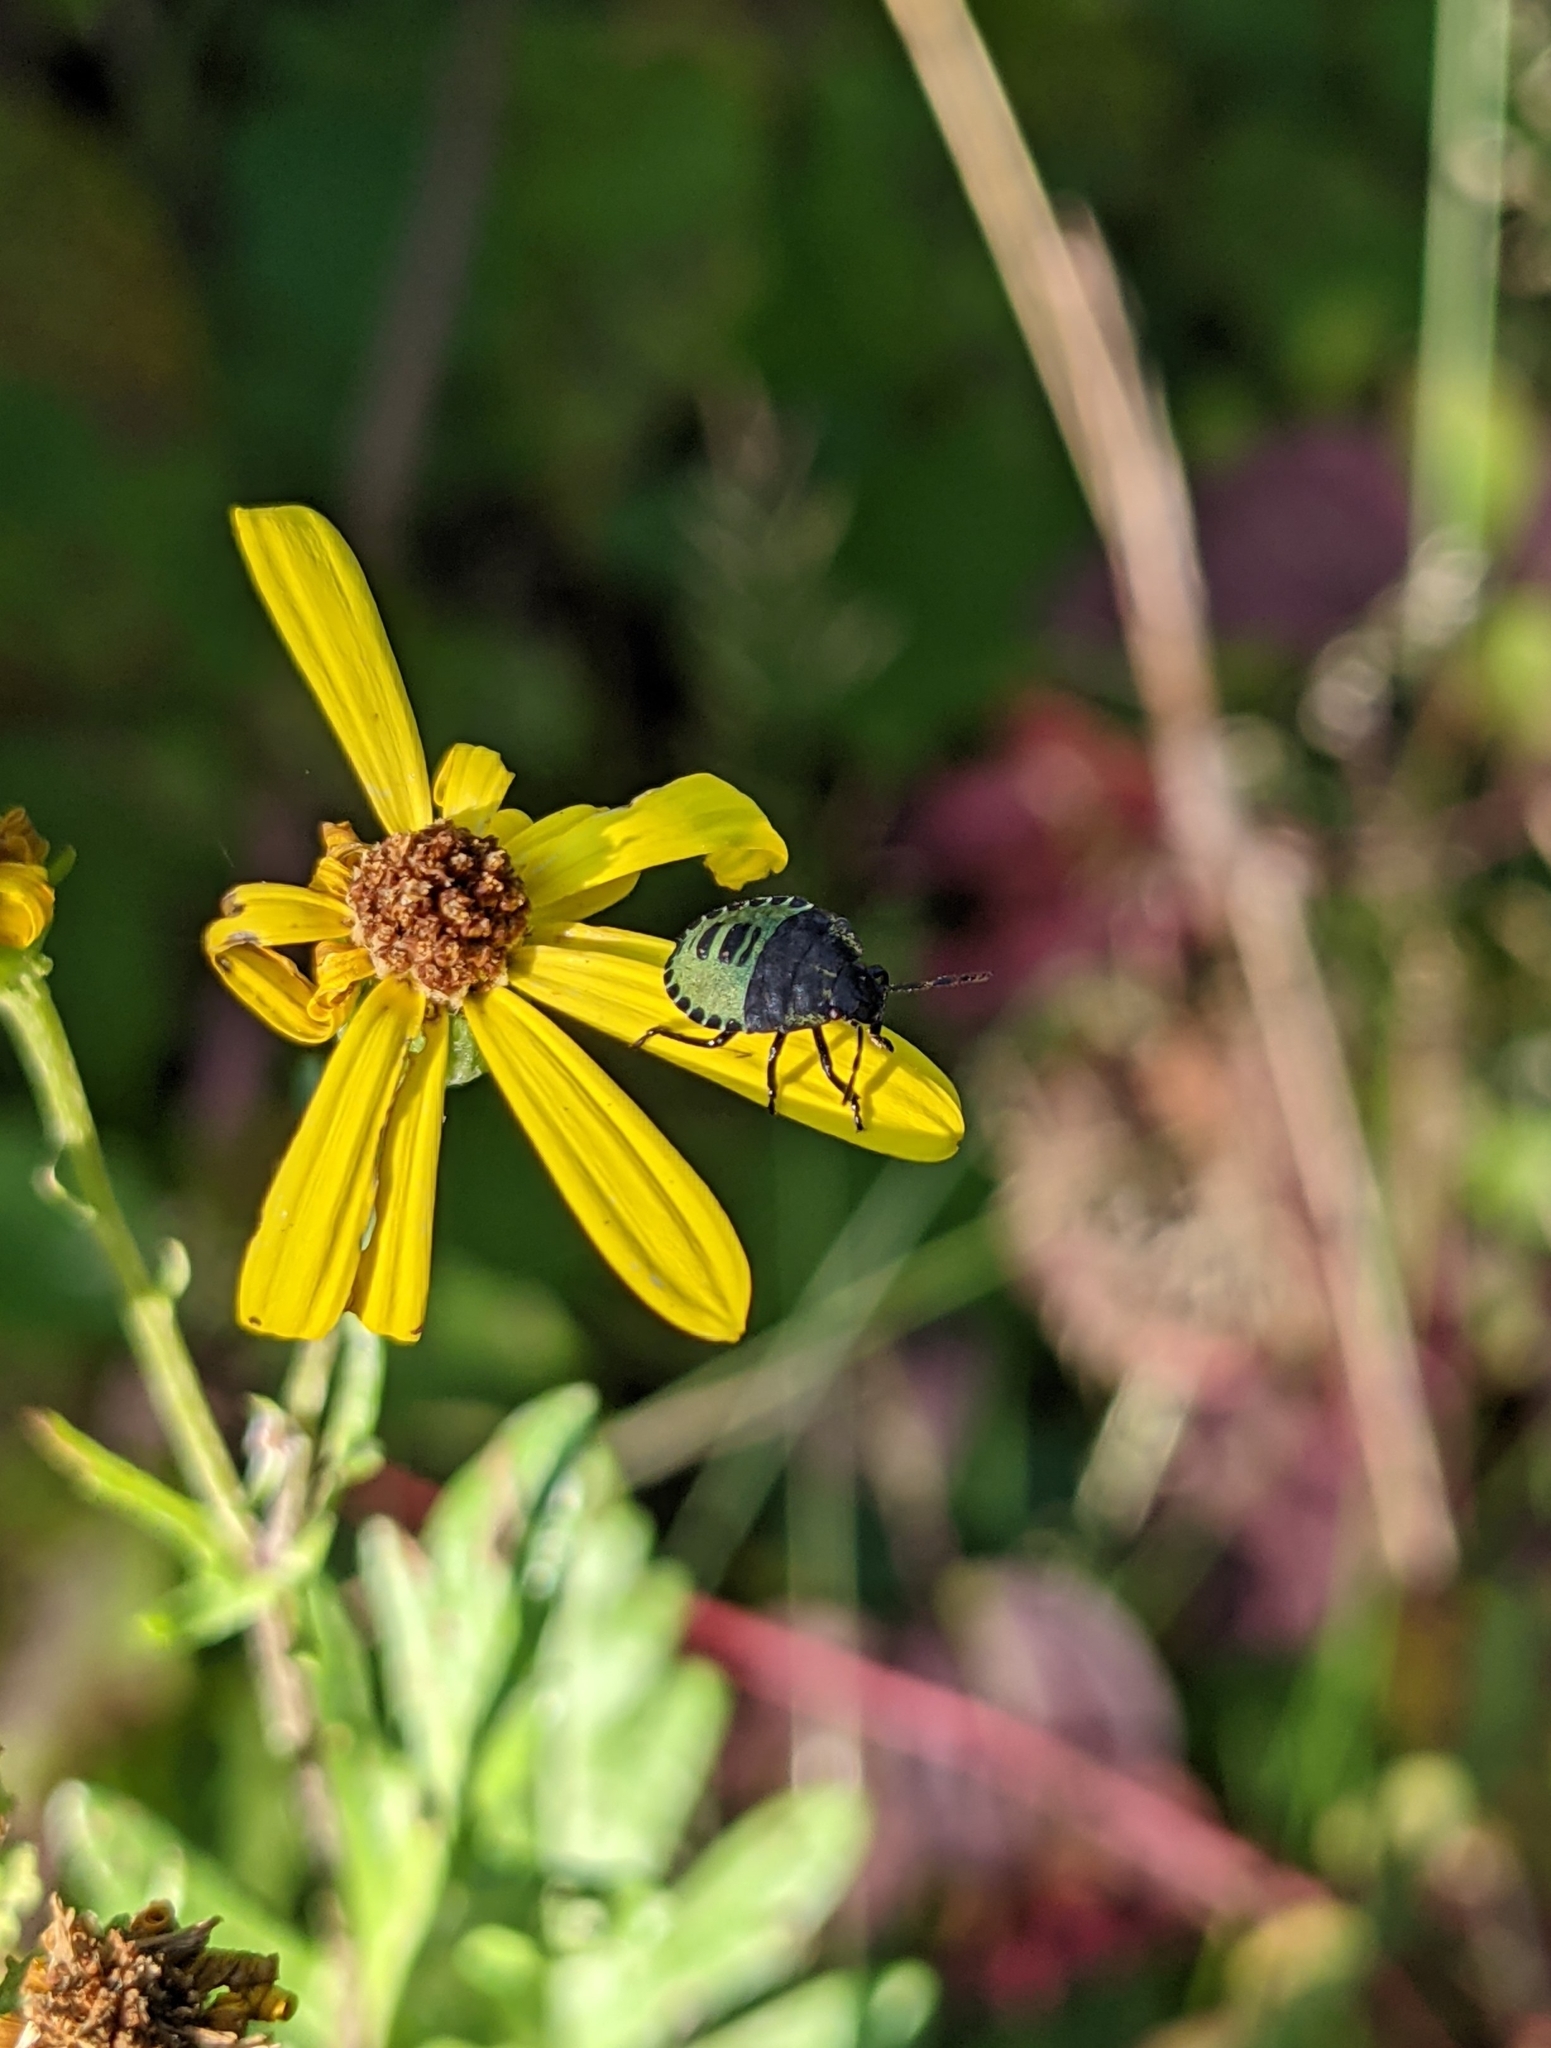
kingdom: Animalia
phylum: Arthropoda
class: Insecta
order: Hemiptera
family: Pentatomidae
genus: Palomena
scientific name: Palomena prasina
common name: Green shieldbug
